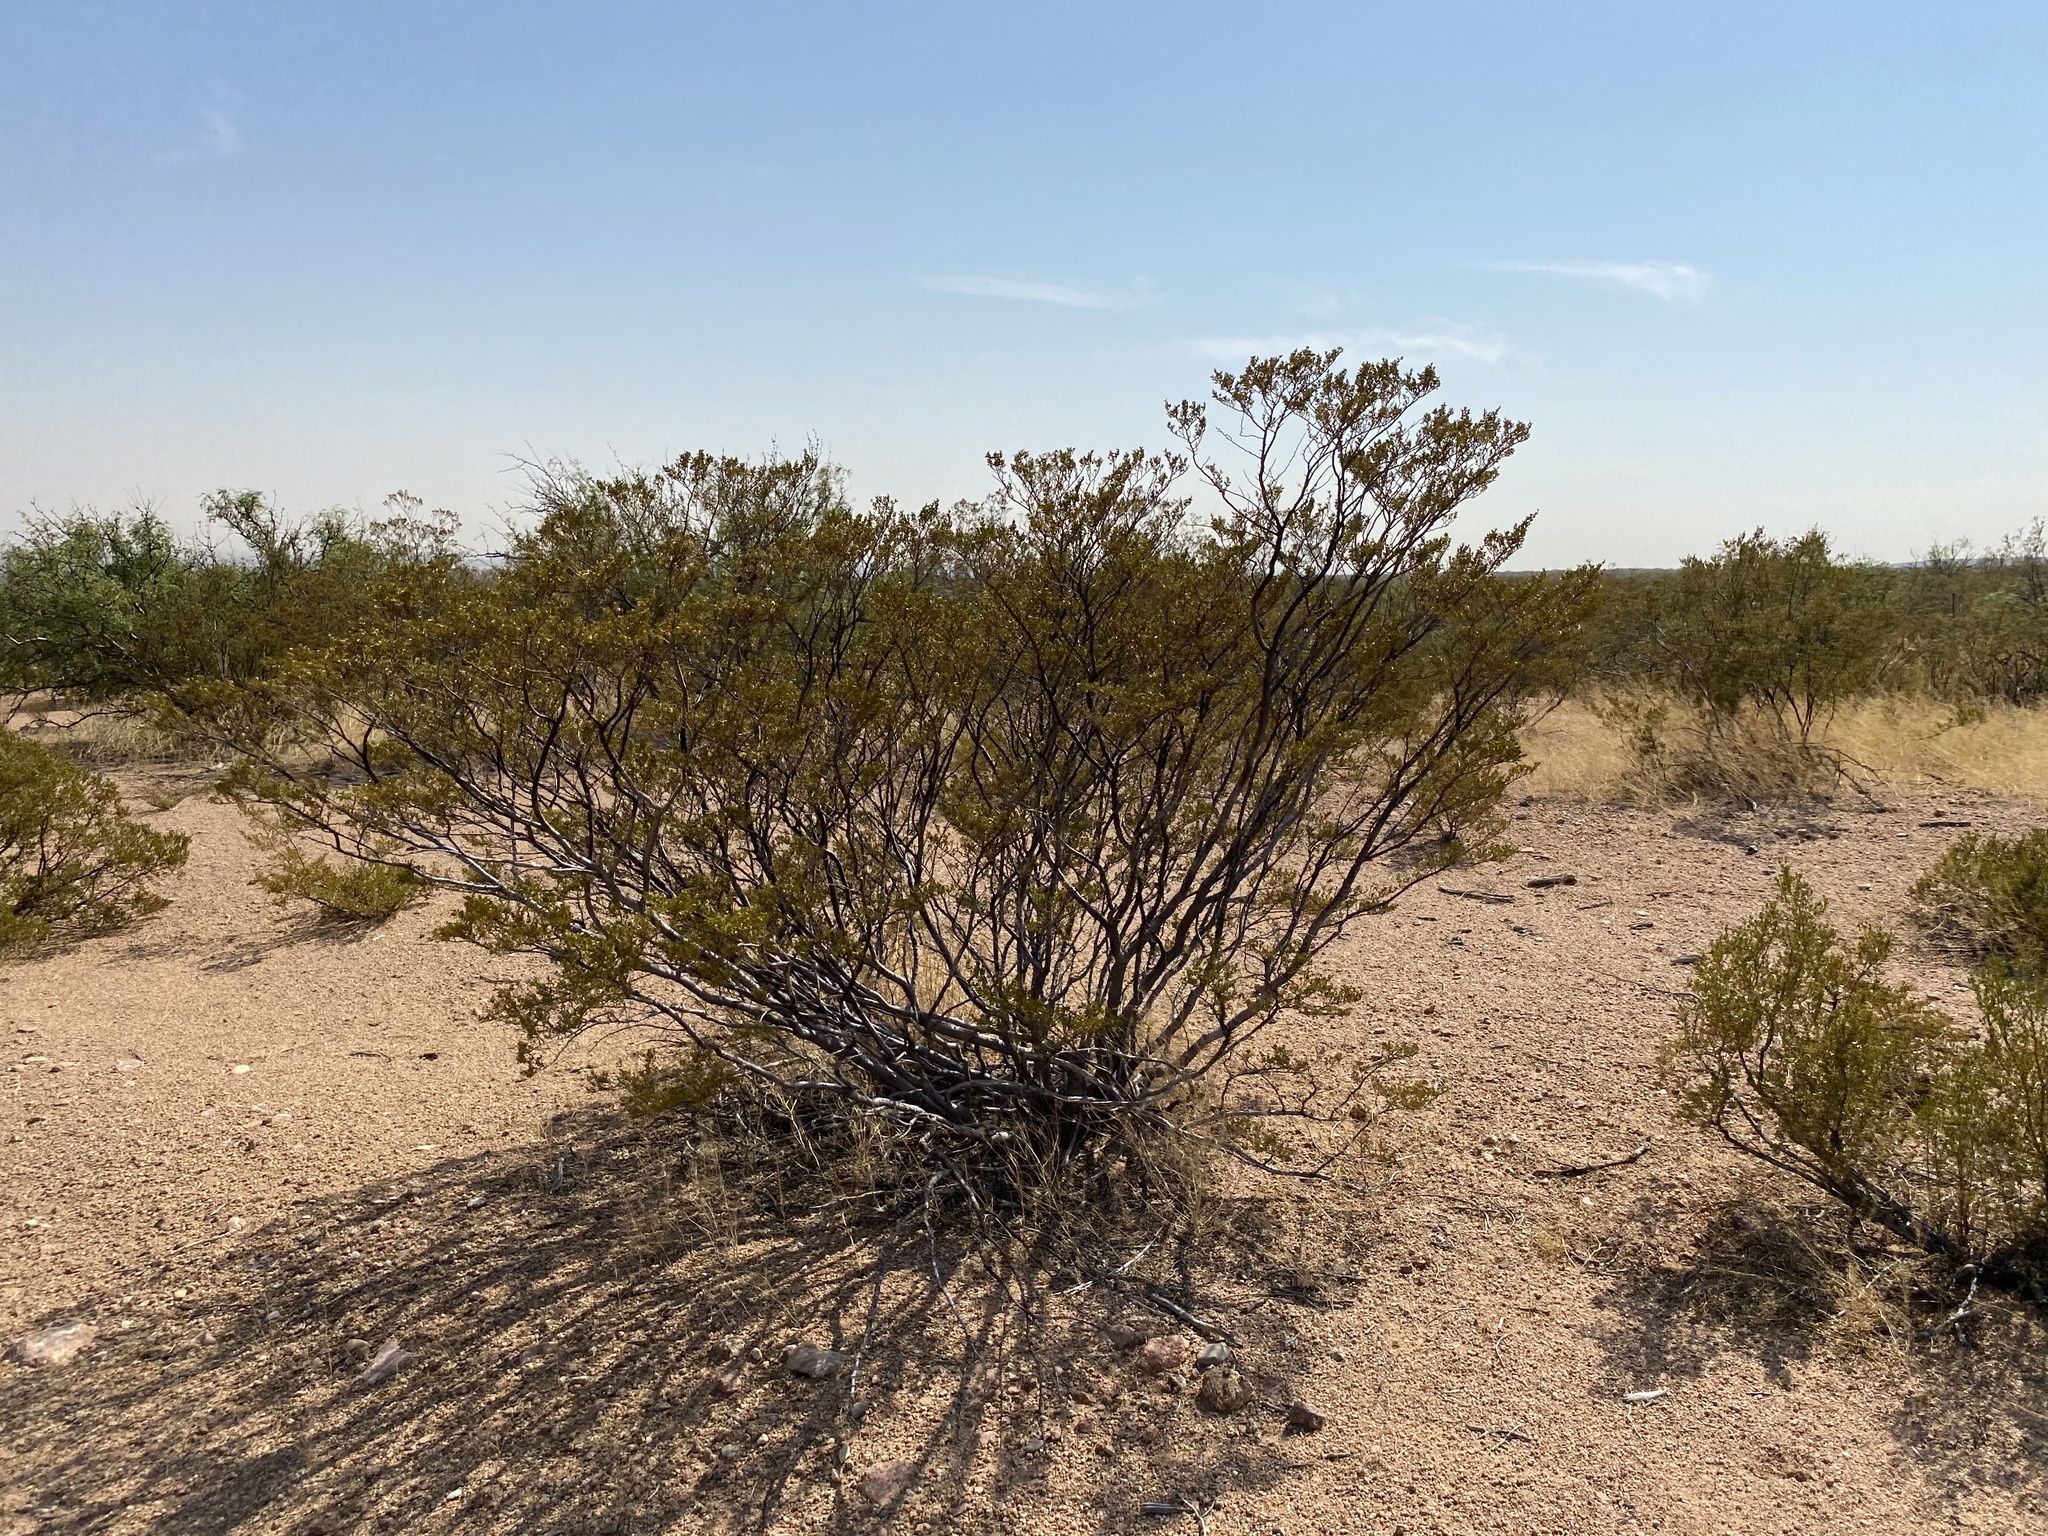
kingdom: Plantae
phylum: Tracheophyta
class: Magnoliopsida
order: Zygophyllales
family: Zygophyllaceae
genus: Larrea
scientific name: Larrea tridentata
